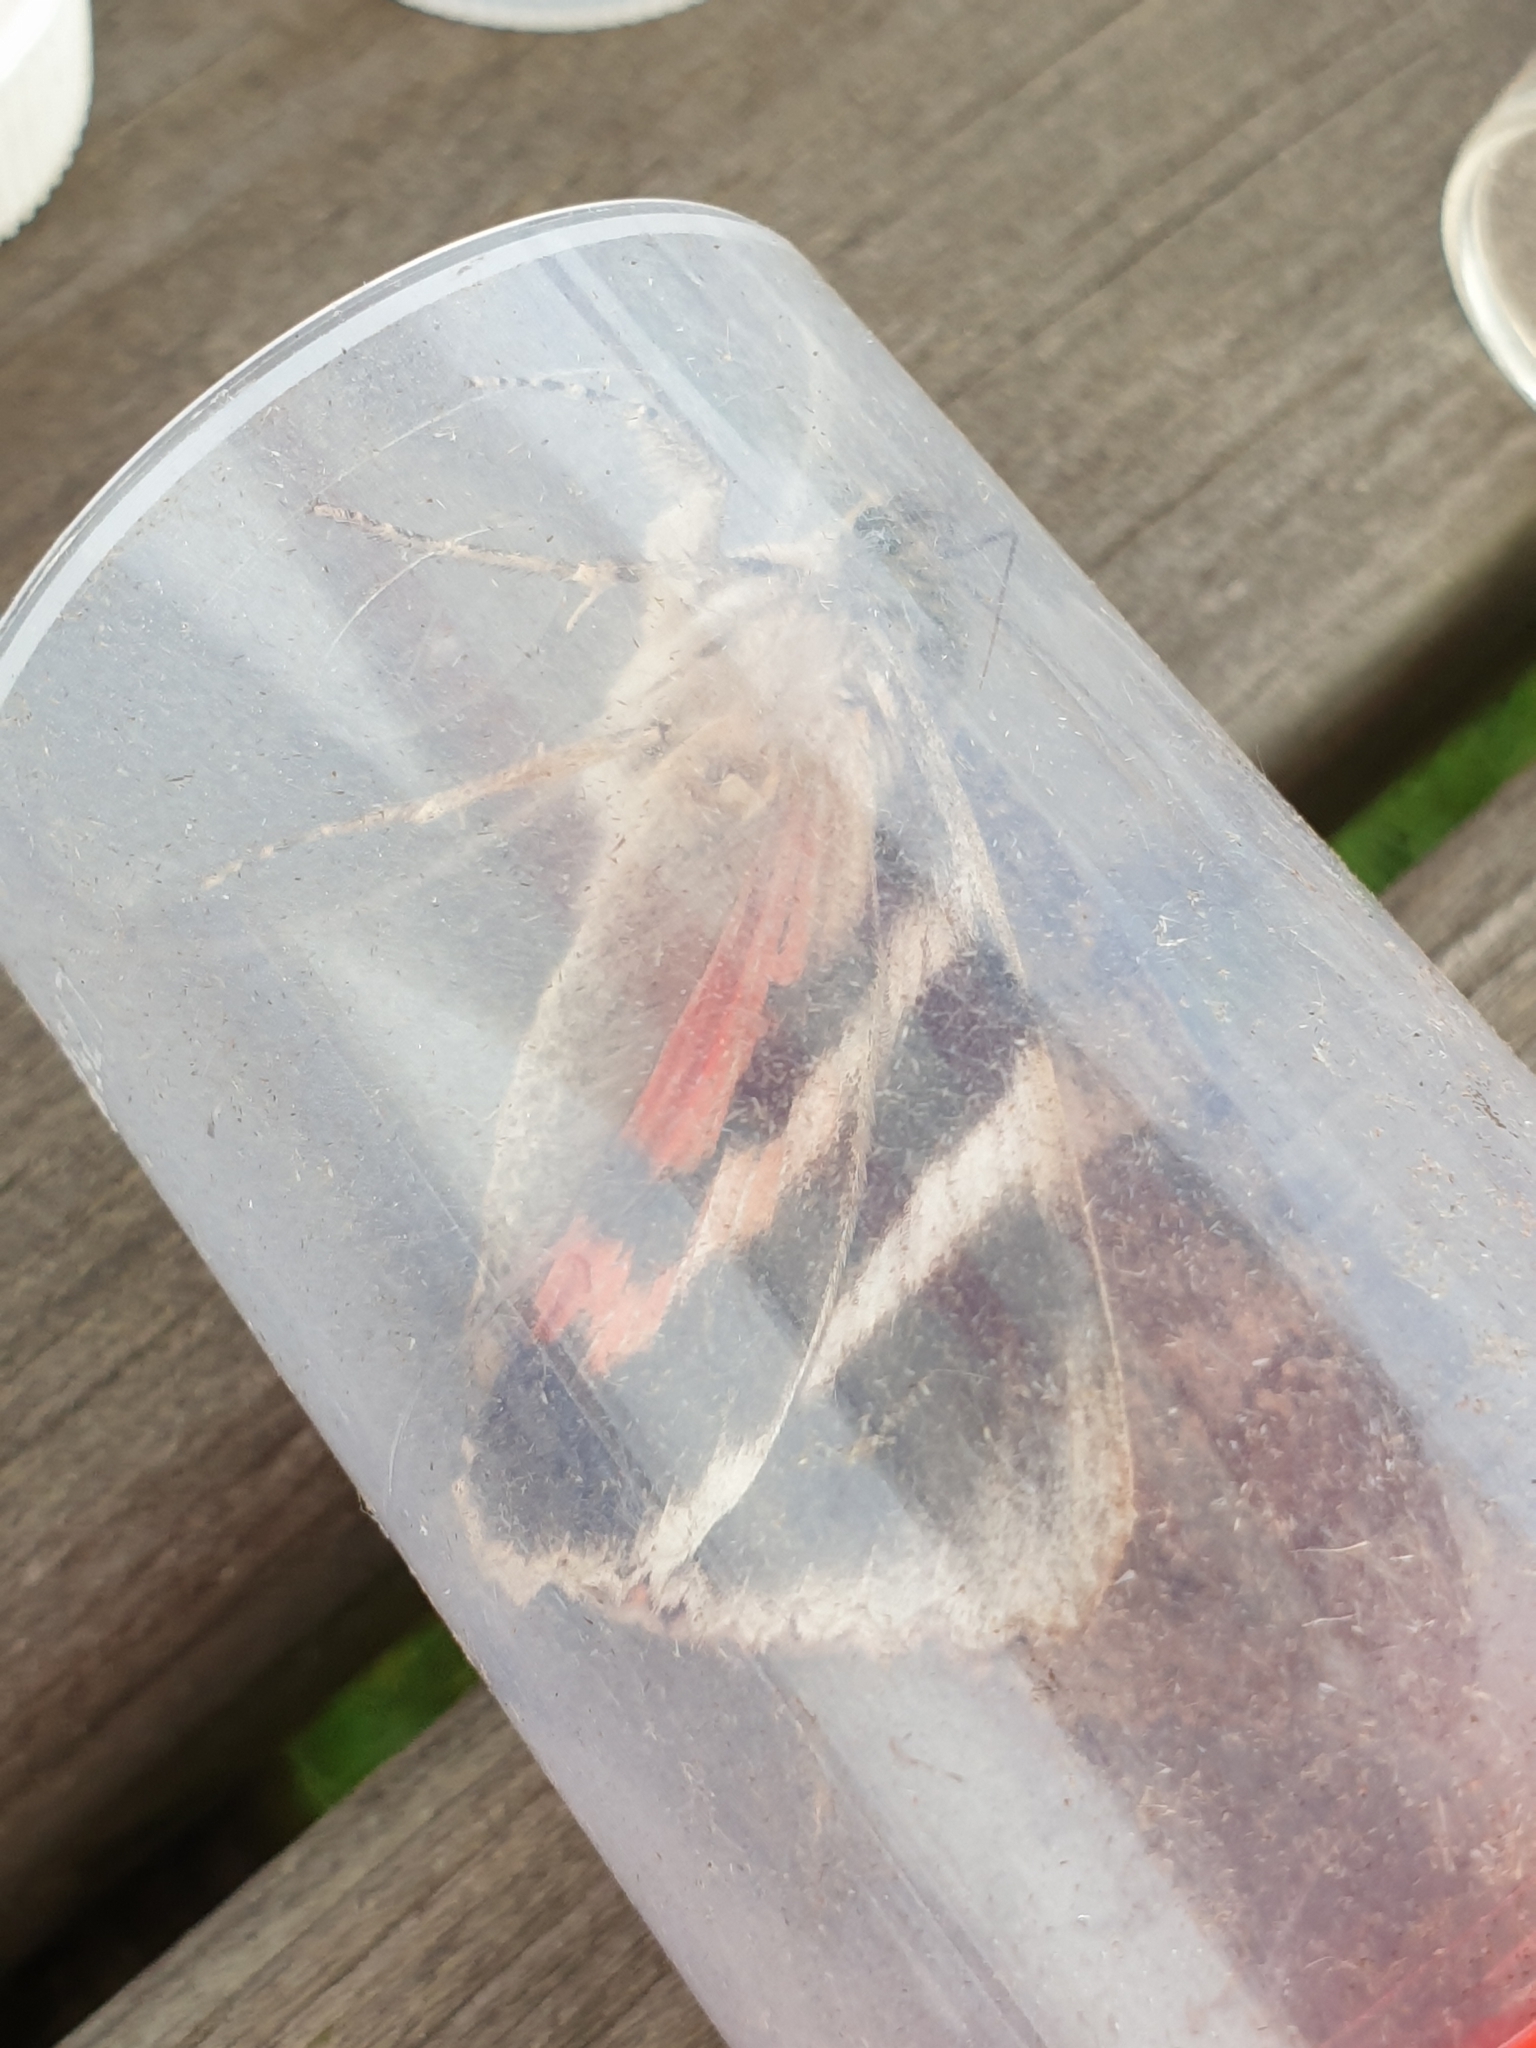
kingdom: Animalia
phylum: Arthropoda
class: Insecta
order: Lepidoptera
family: Erebidae
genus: Catocala
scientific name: Catocala nupta
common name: Red underwing
